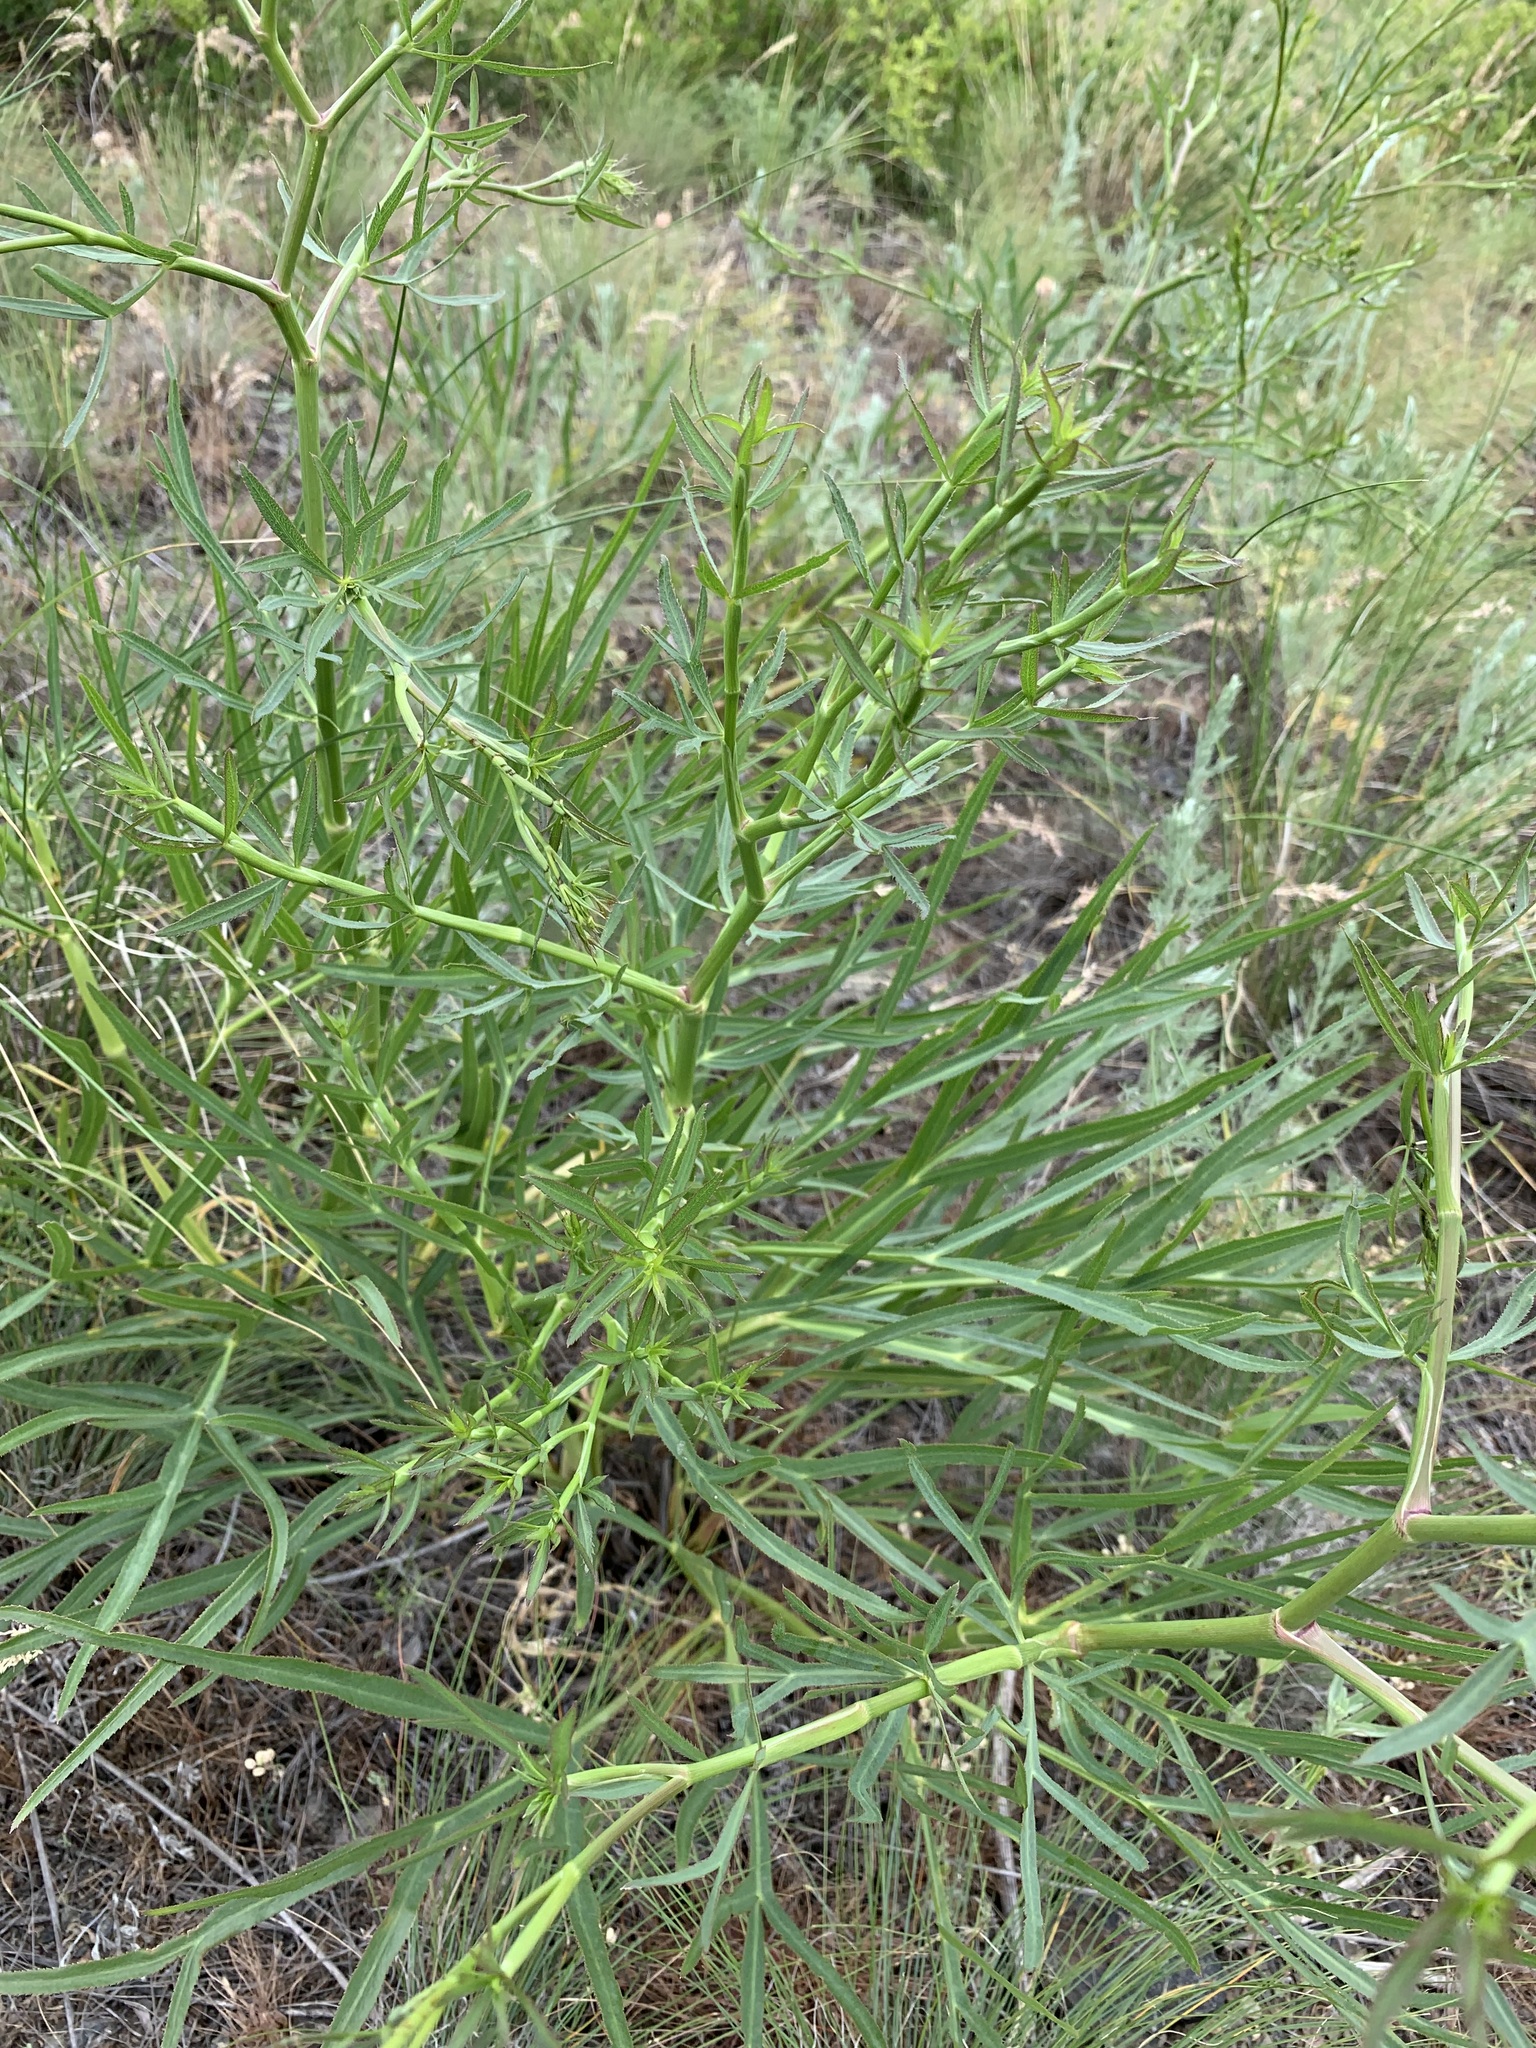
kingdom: Plantae
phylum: Tracheophyta
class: Magnoliopsida
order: Apiales
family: Apiaceae
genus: Falcaria
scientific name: Falcaria vulgaris
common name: Longleaf
